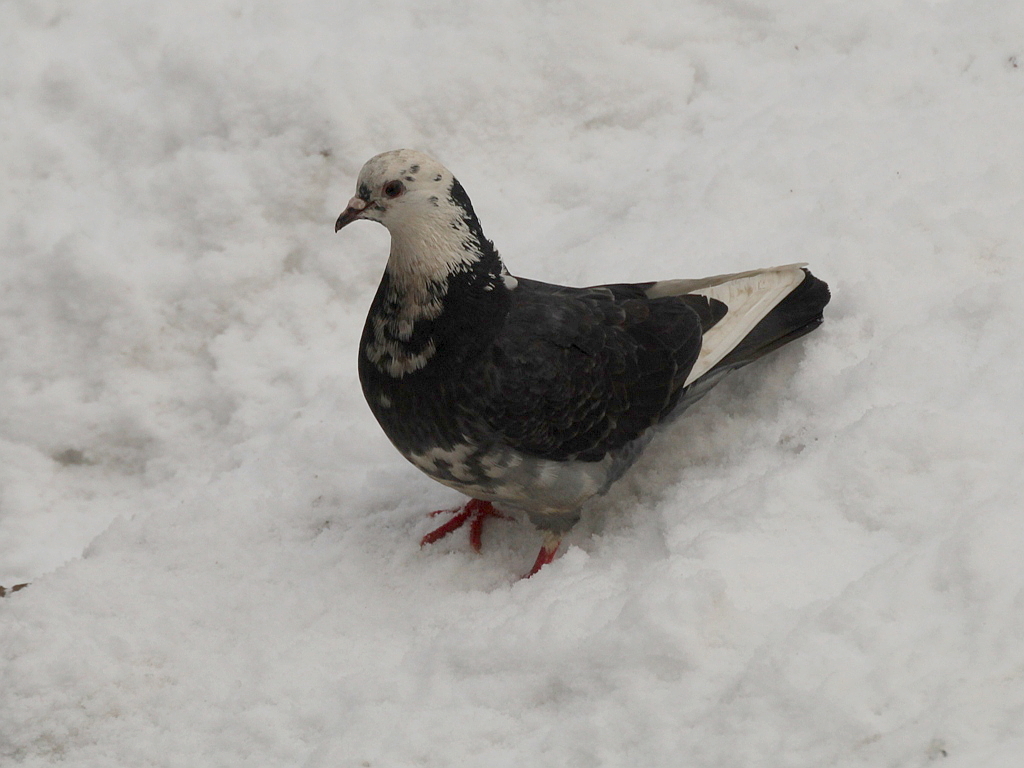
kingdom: Animalia
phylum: Chordata
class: Aves
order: Columbiformes
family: Columbidae
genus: Columba
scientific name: Columba livia
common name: Rock pigeon
